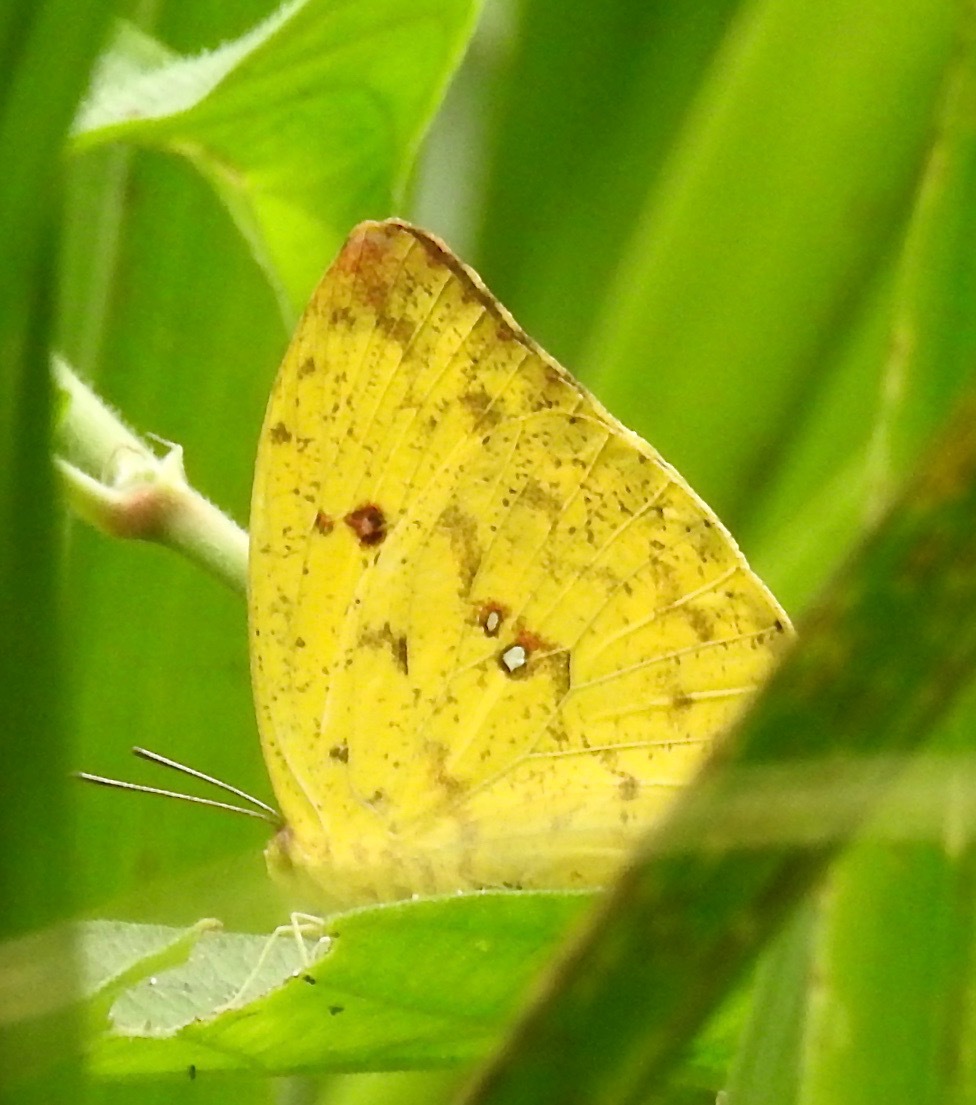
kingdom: Animalia
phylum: Arthropoda
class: Insecta
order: Lepidoptera
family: Pieridae
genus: Phoebis
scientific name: Phoebis argante
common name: Apricot sulphur
